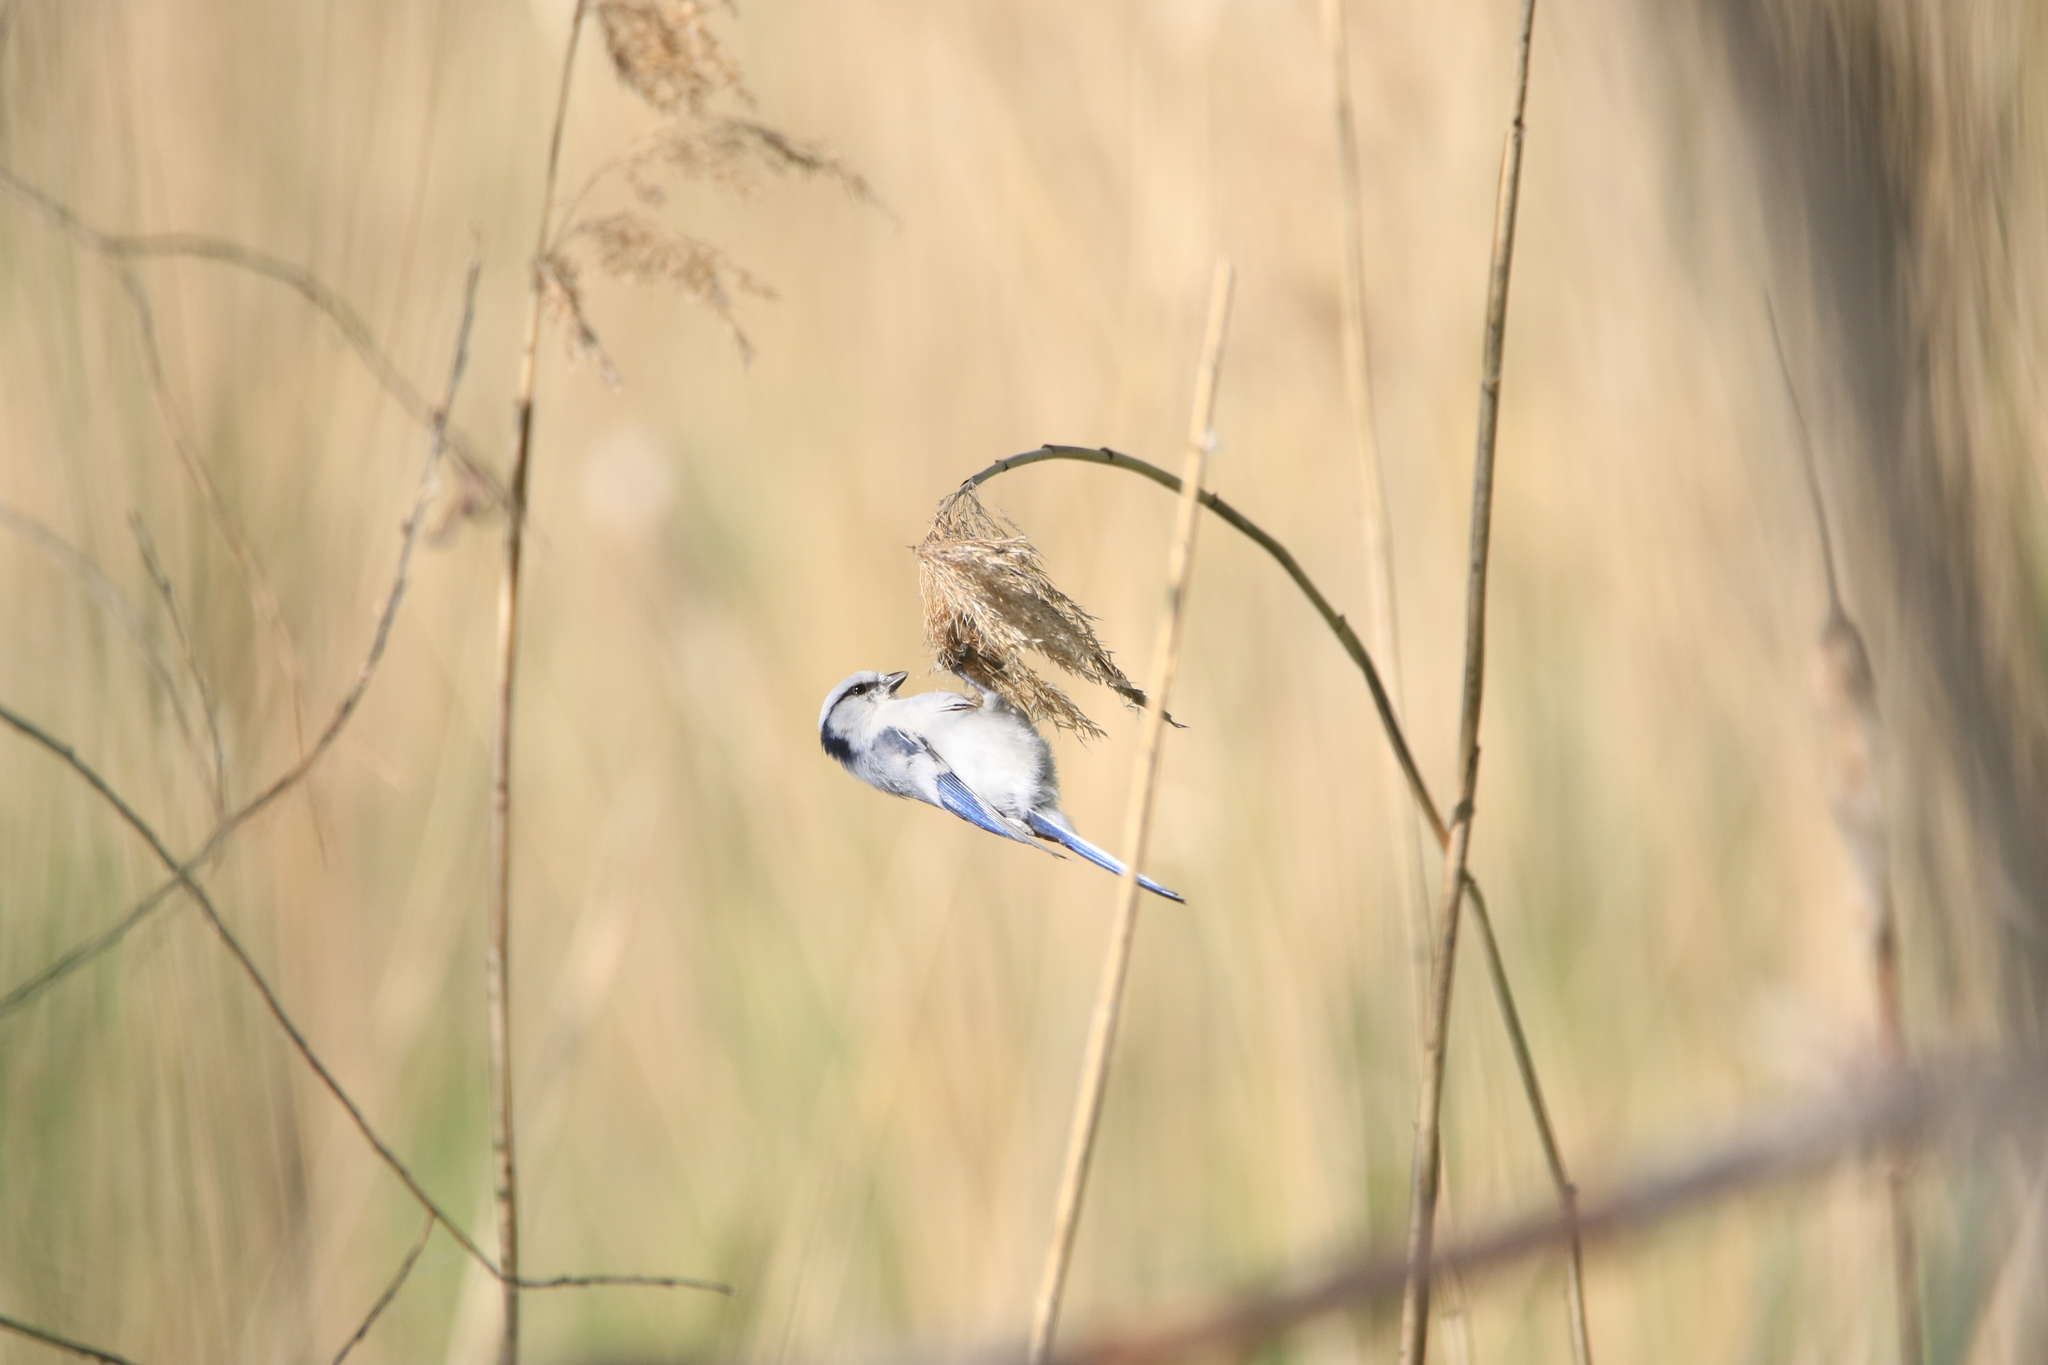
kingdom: Animalia
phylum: Chordata
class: Aves
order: Passeriformes
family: Paridae
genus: Cyanistes
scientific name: Cyanistes cyanus
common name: Azure tit
